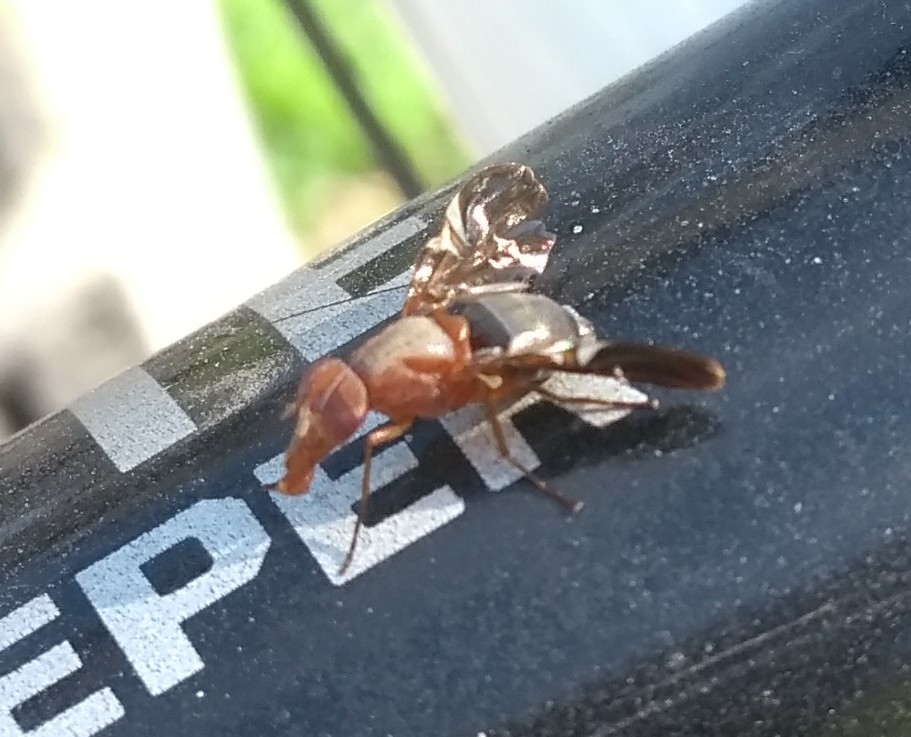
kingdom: Animalia
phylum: Arthropoda
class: Insecta
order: Diptera
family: Ulidiidae
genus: Delphinia
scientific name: Delphinia picta
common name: Common picture-winged fly
